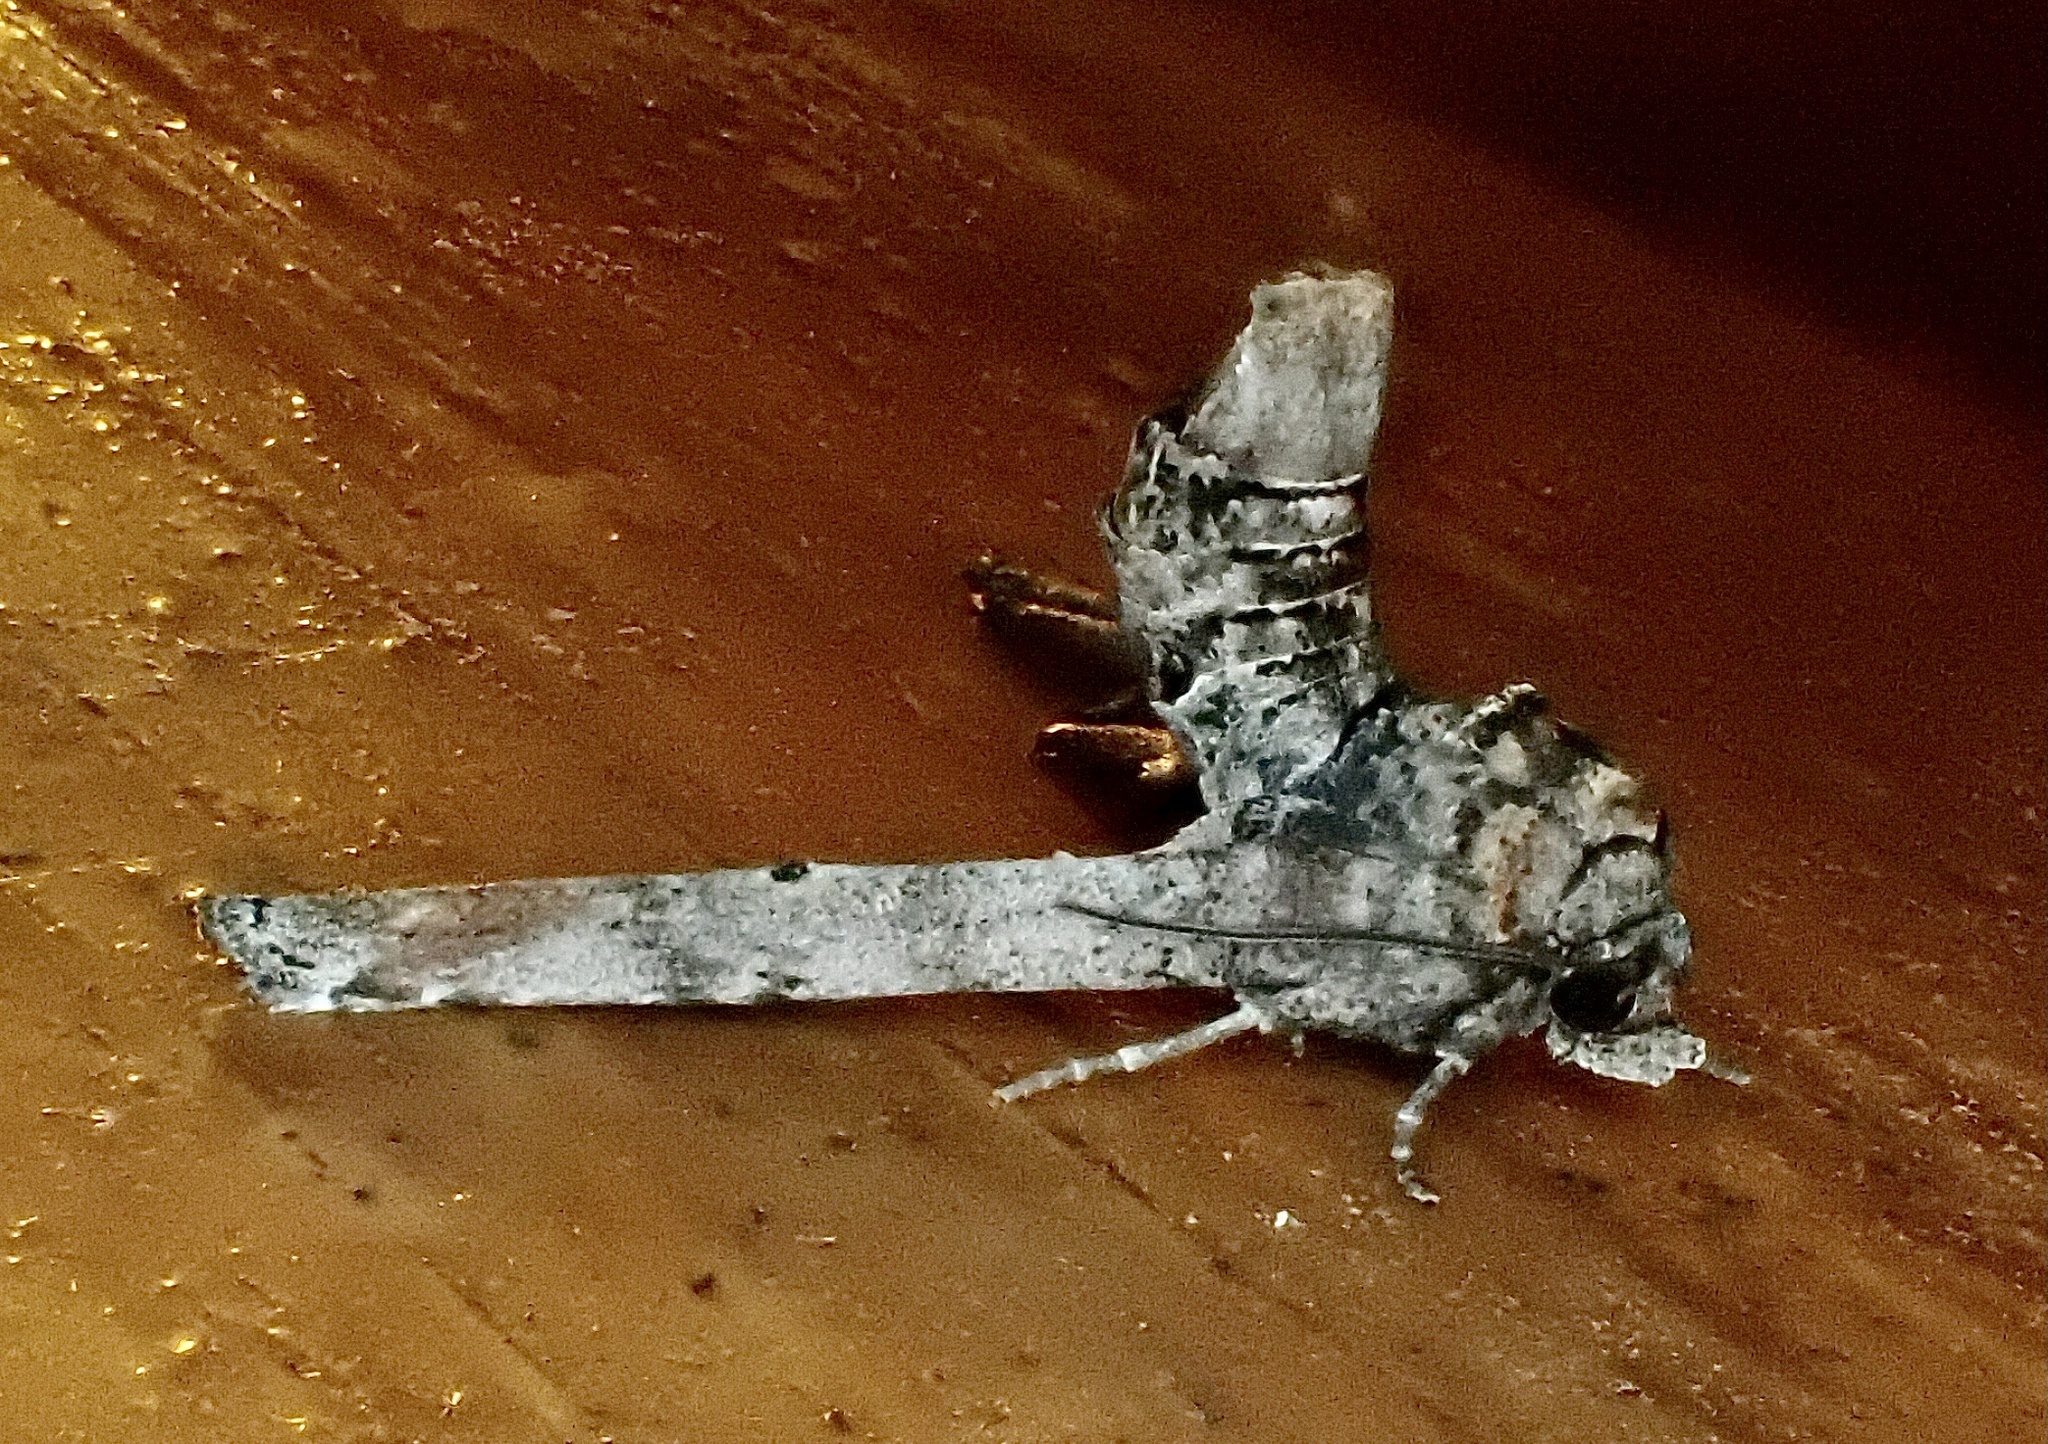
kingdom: Animalia
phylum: Arthropoda
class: Insecta
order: Lepidoptera
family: Euteliidae
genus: Marathyssa
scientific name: Marathyssa inficita
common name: Dark marathyssa moth
